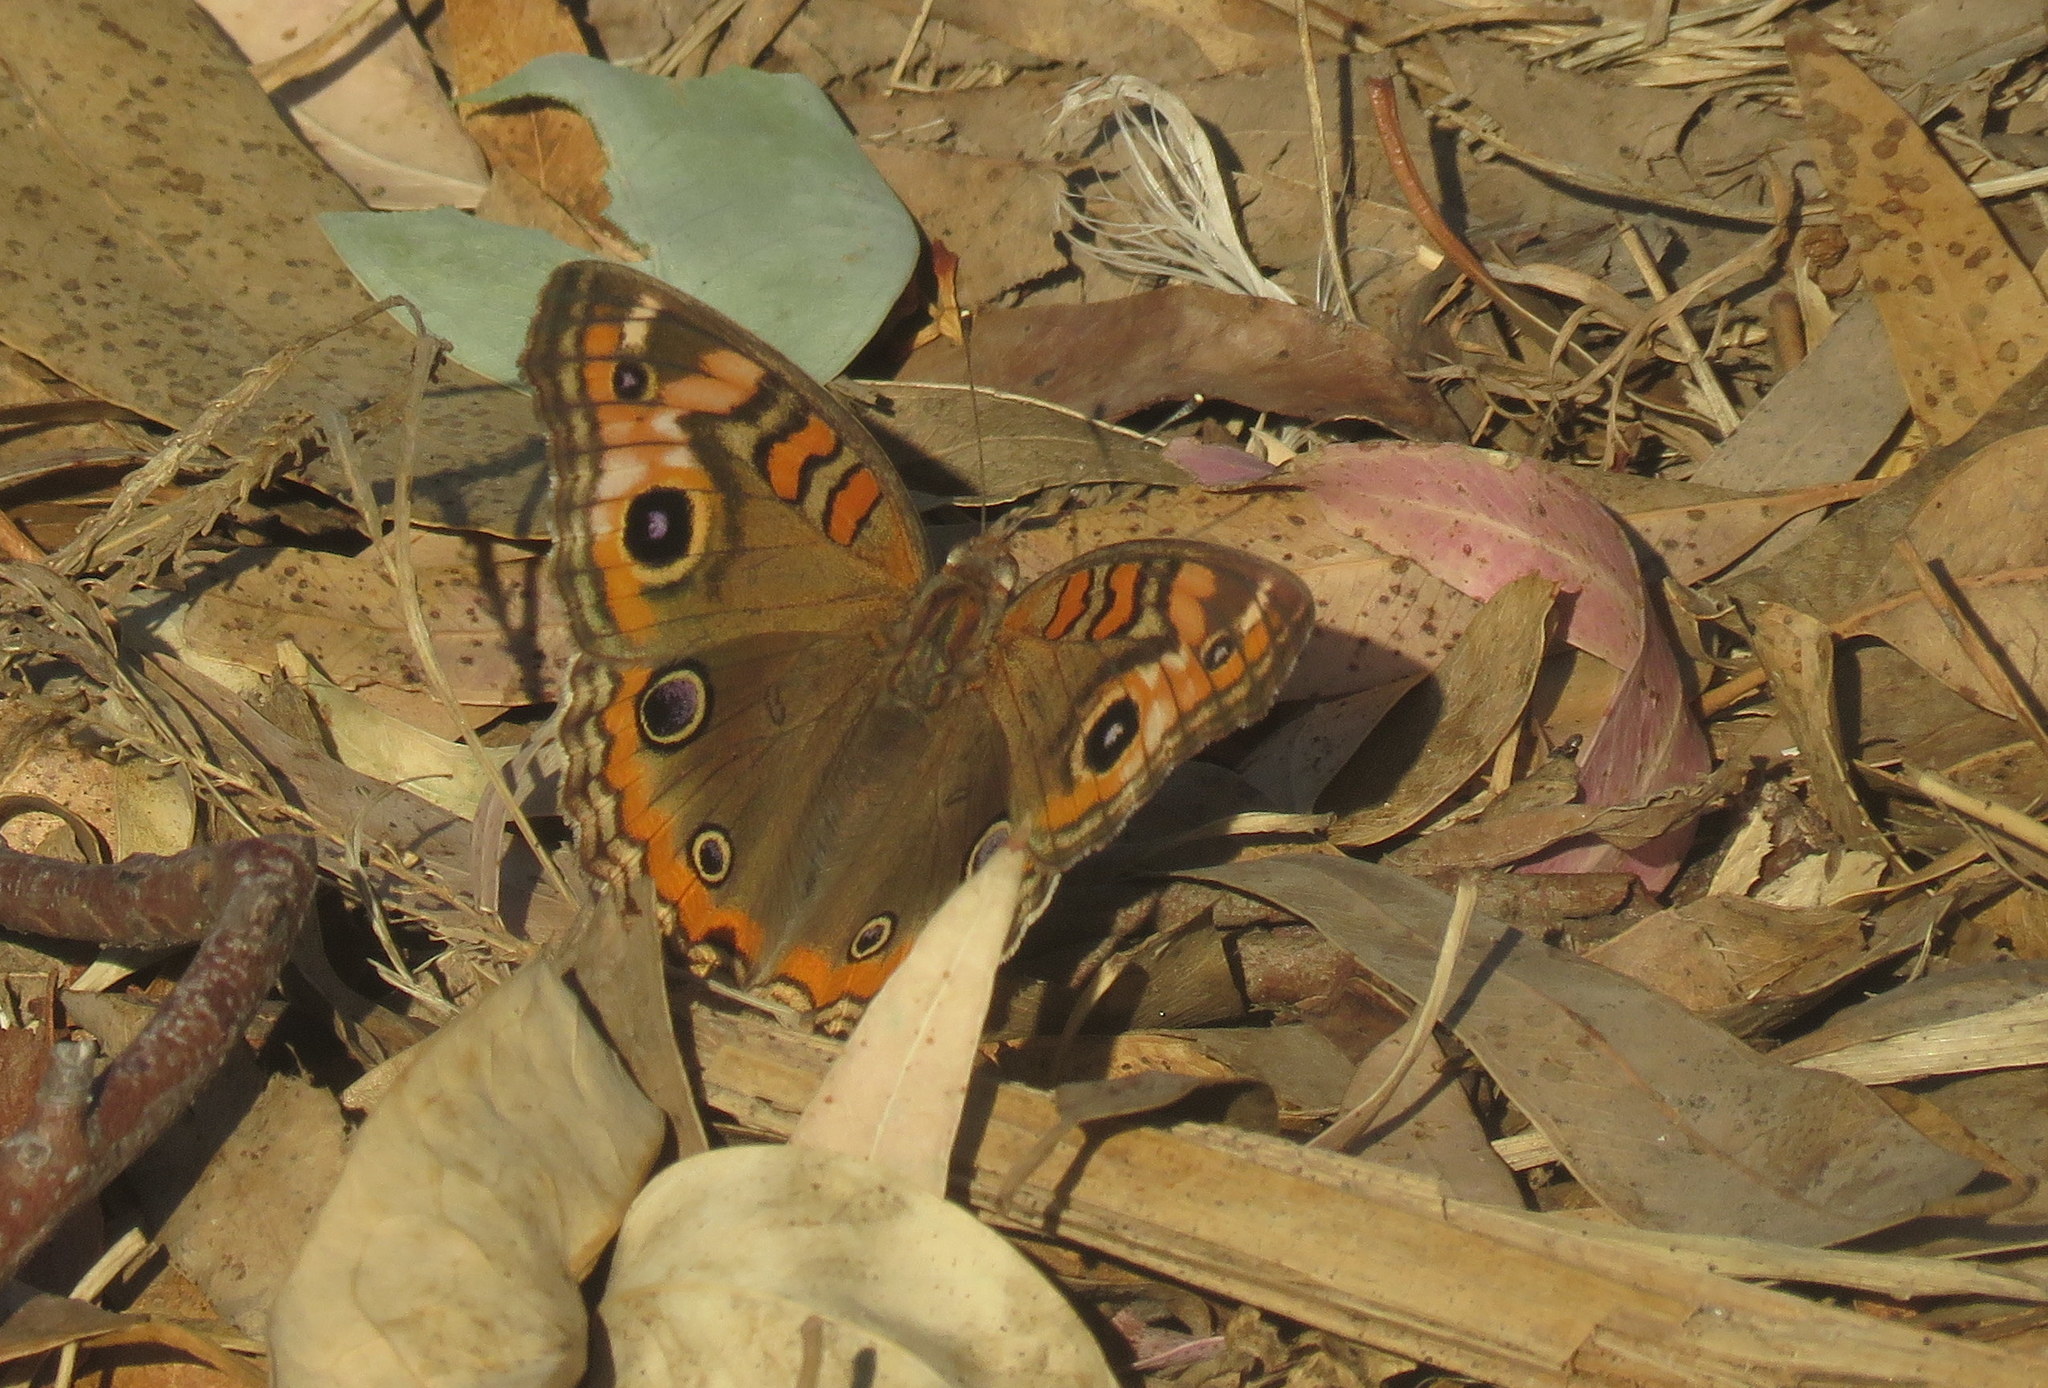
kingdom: Animalia
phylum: Arthropoda
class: Insecta
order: Lepidoptera
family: Nymphalidae
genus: Junonia
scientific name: Junonia lavinia
